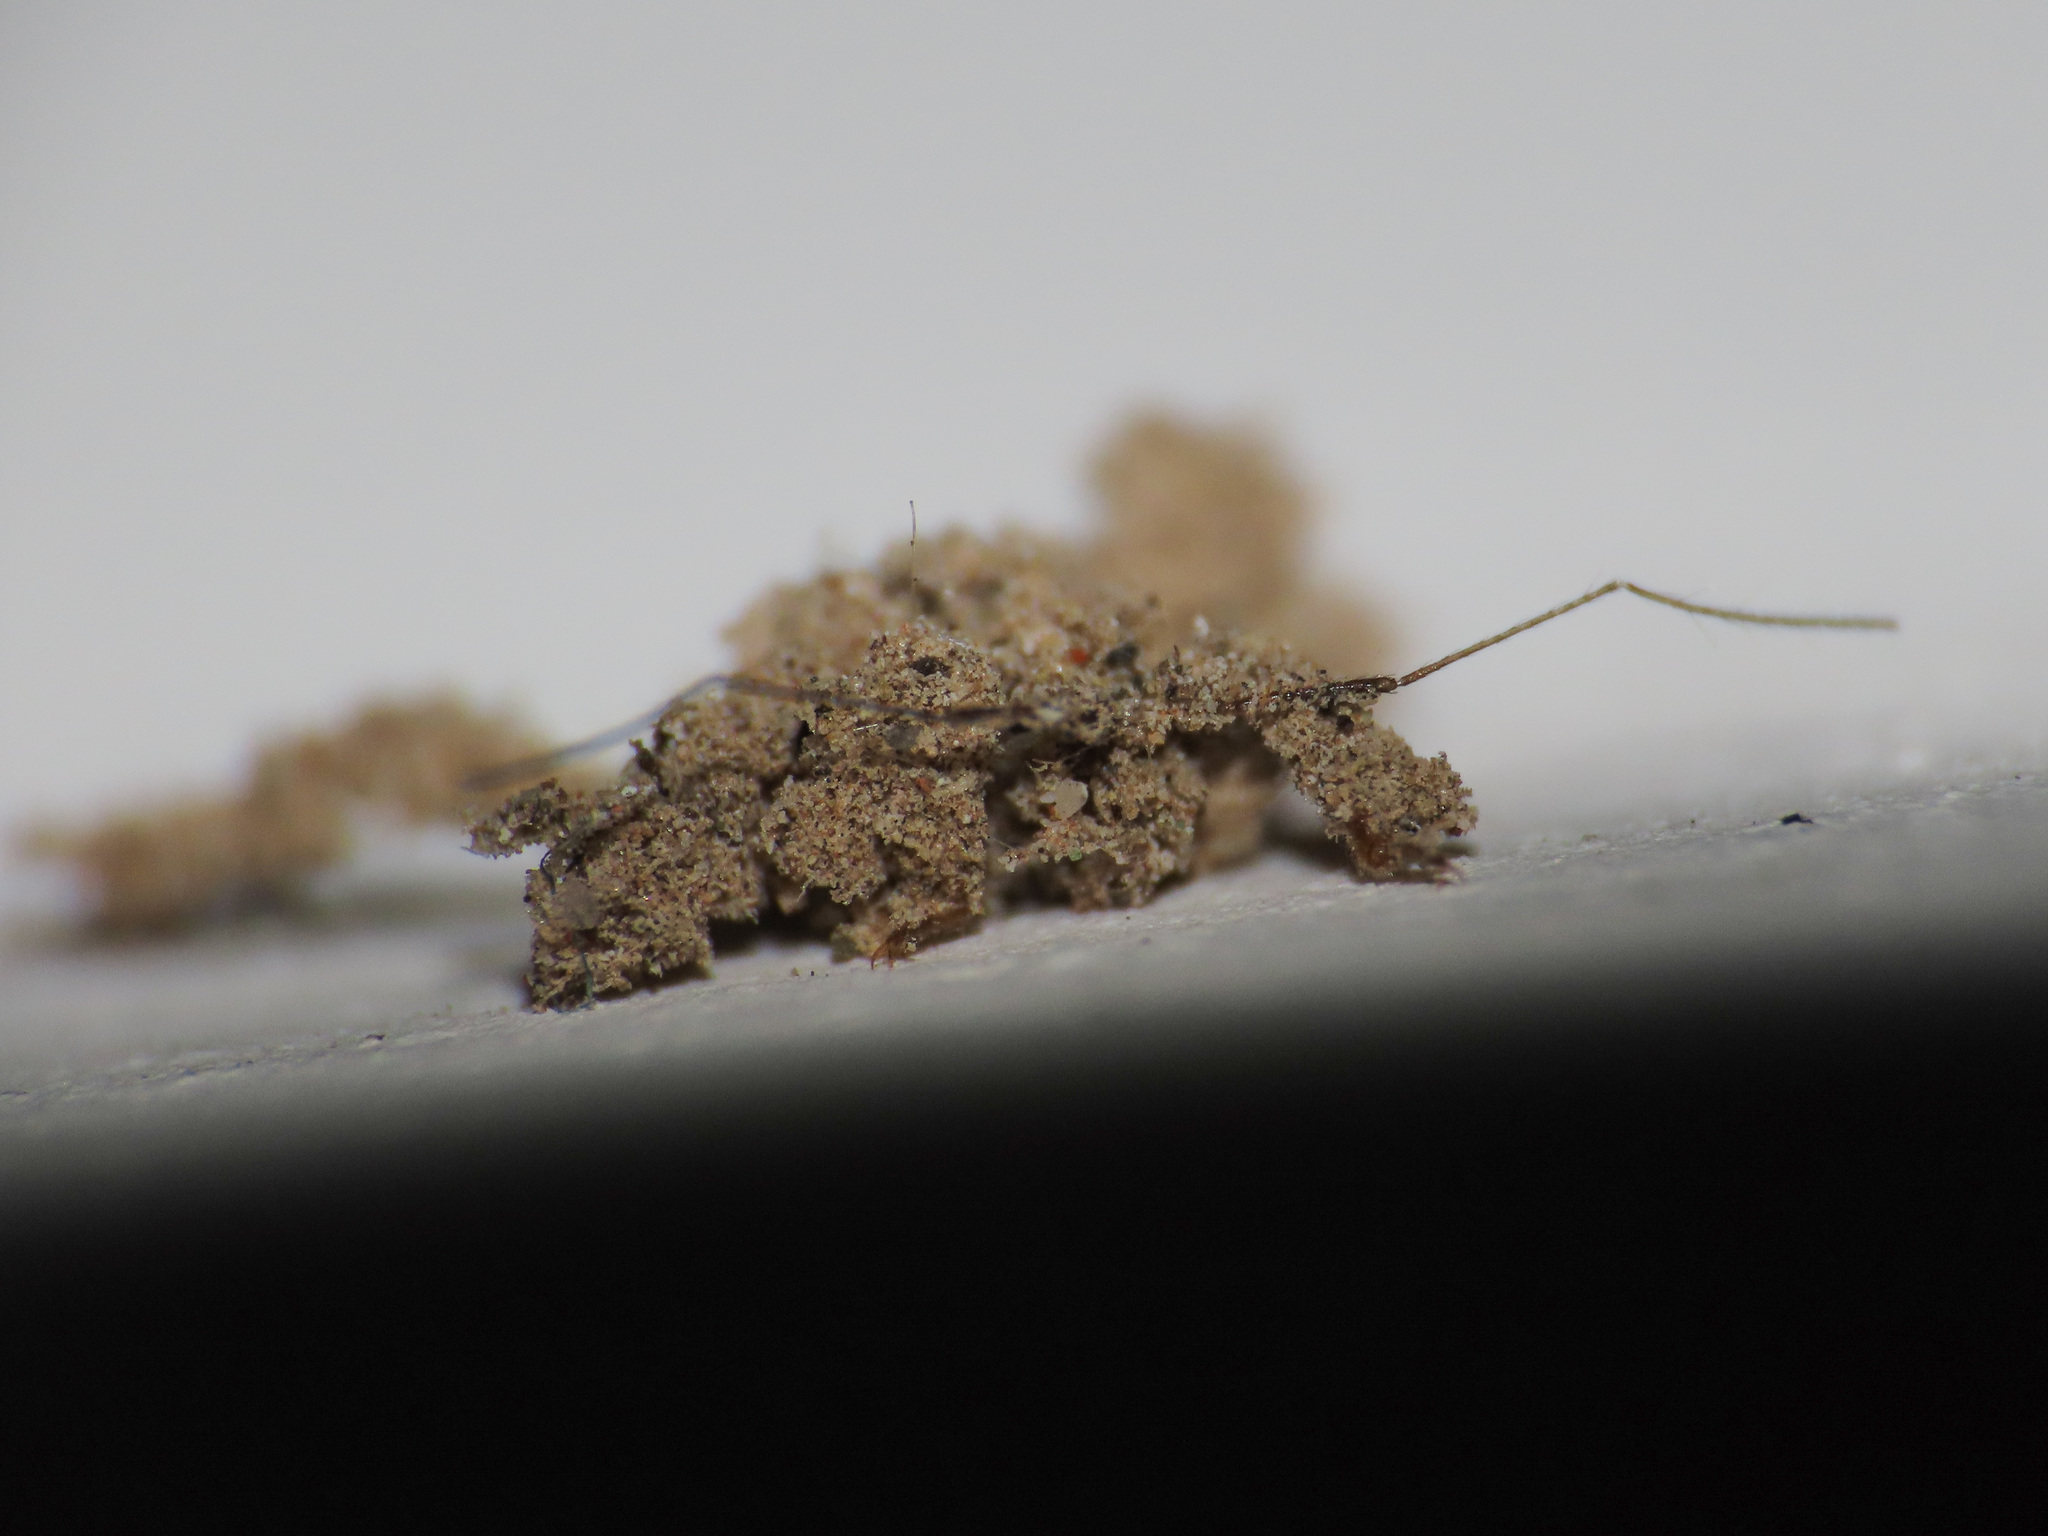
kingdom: Animalia
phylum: Arthropoda
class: Insecta
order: Hemiptera
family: Reduviidae
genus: Reduvius
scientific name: Reduvius personatus
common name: Masked hunter
